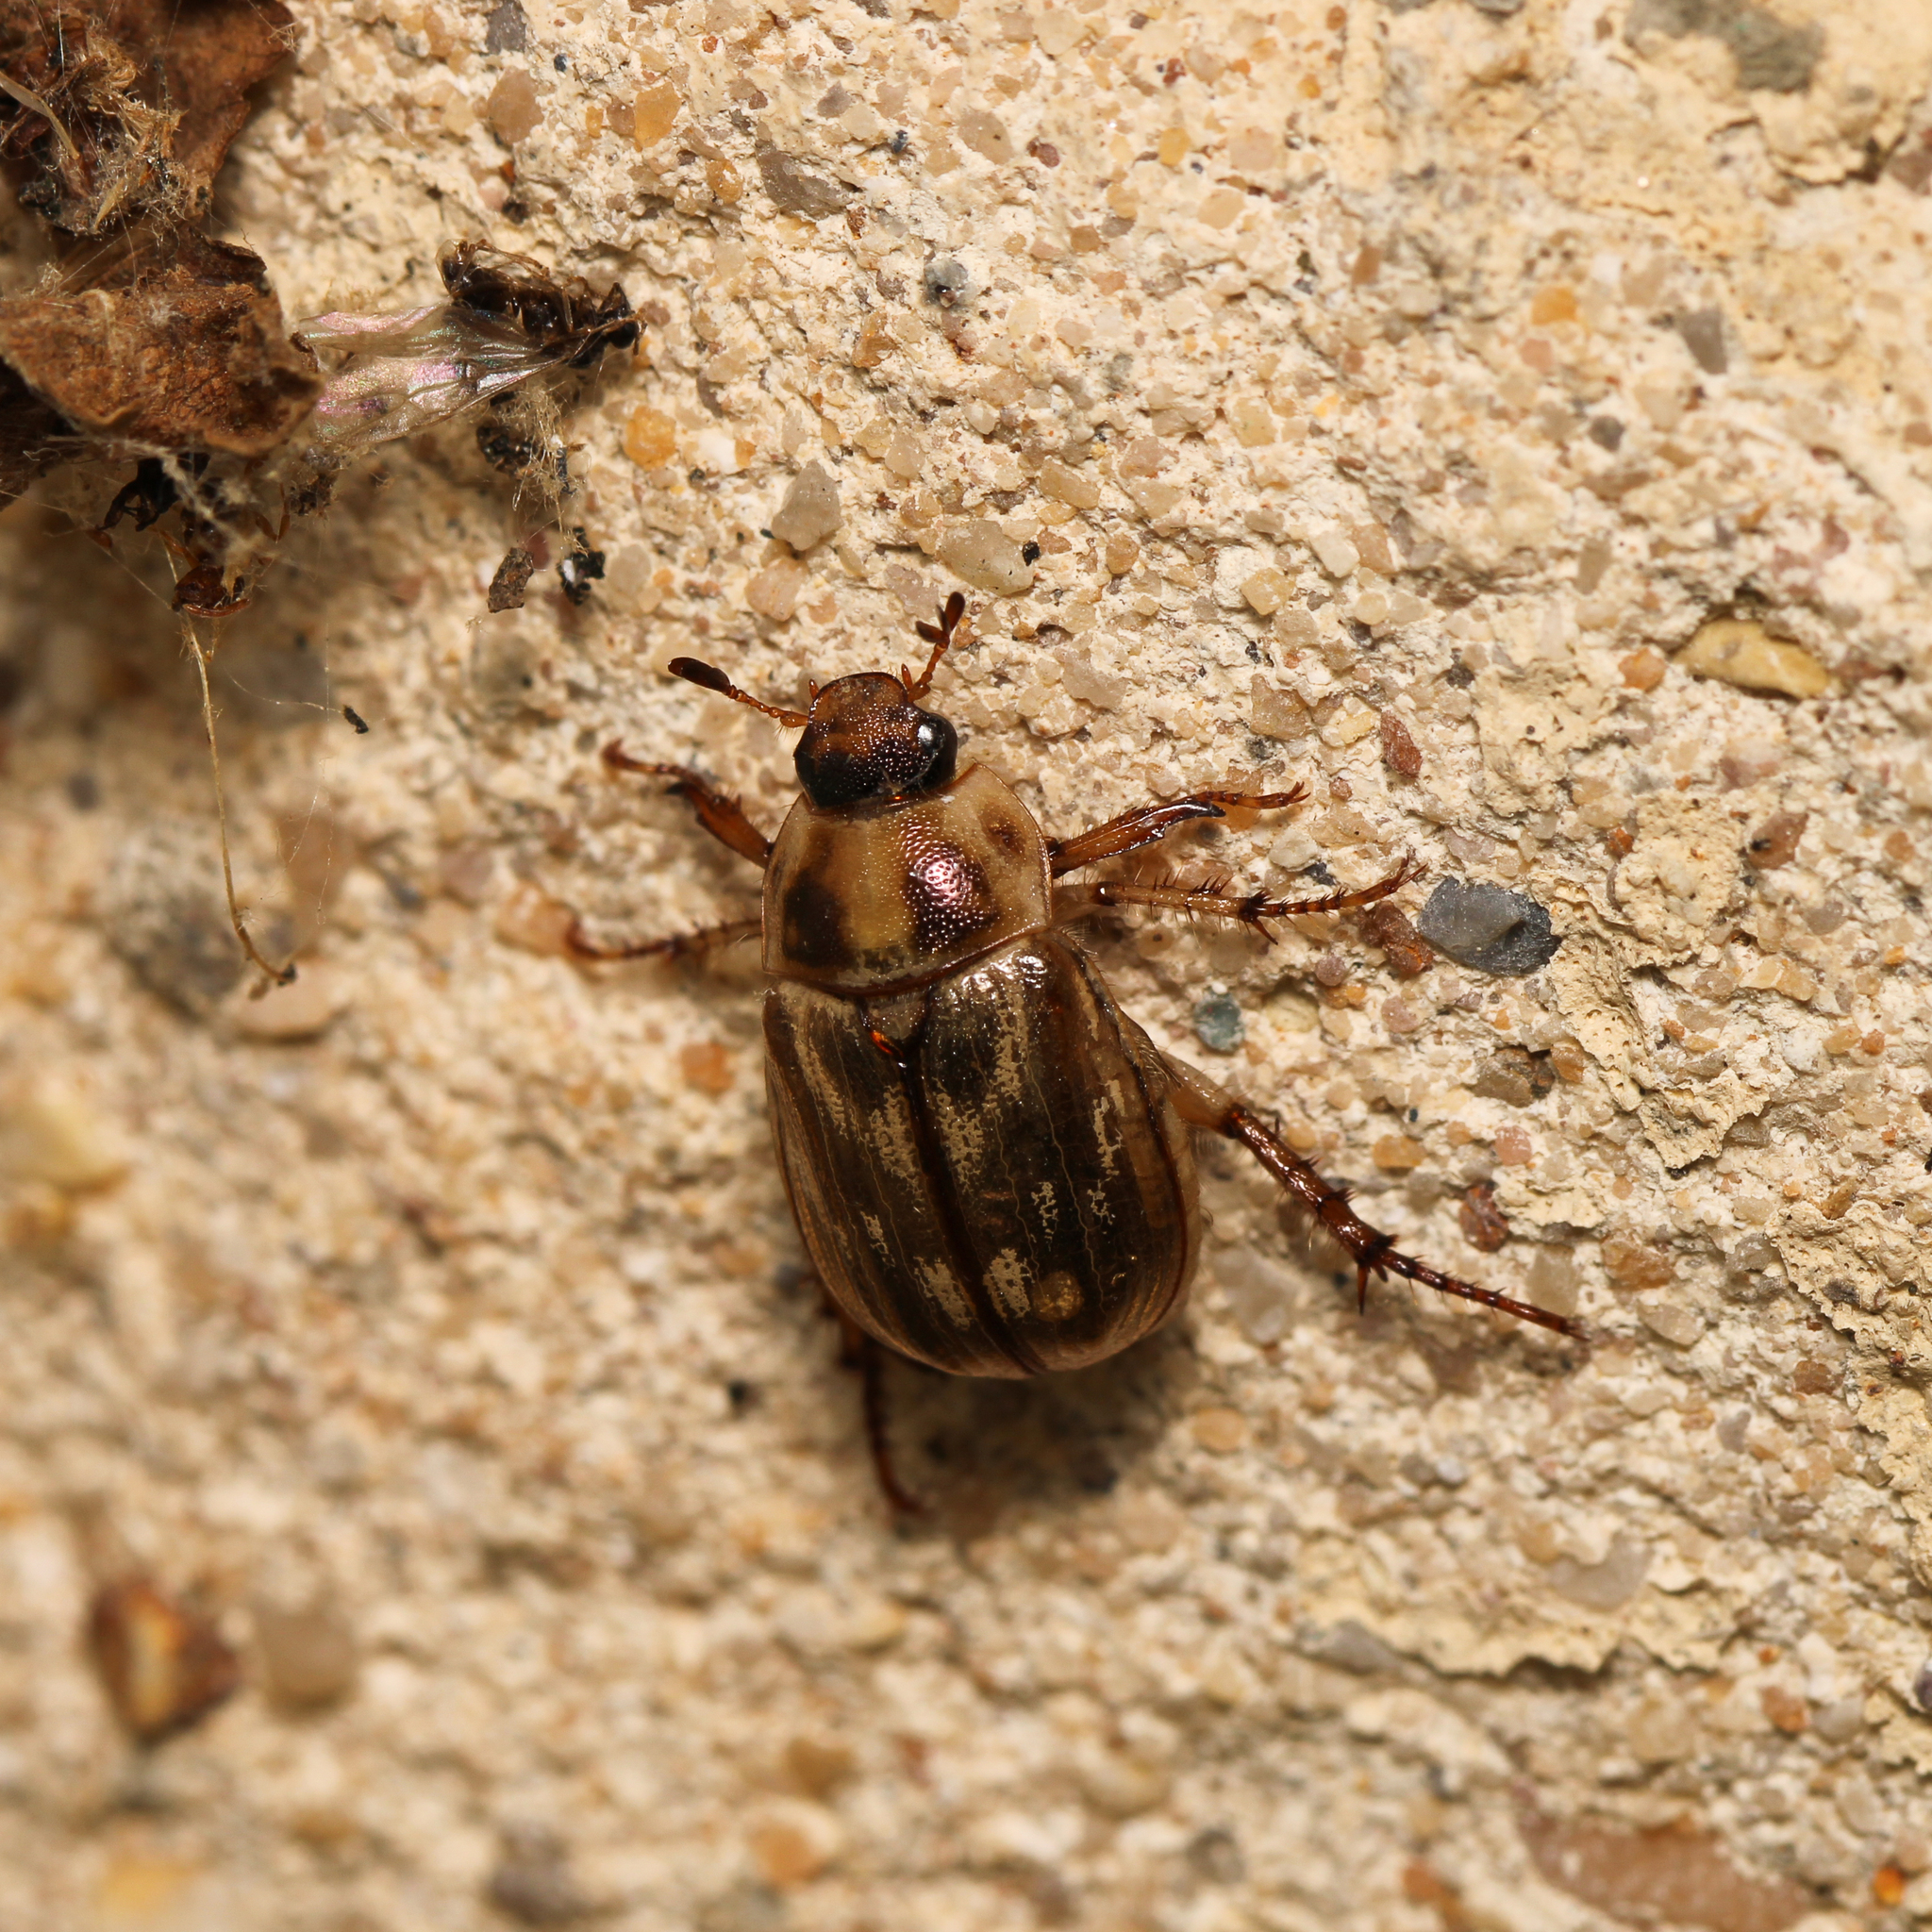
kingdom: Animalia
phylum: Arthropoda
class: Insecta
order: Coleoptera
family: Scarabaeidae
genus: Exomala
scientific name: Exomala orientalis
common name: Oriental beetle
